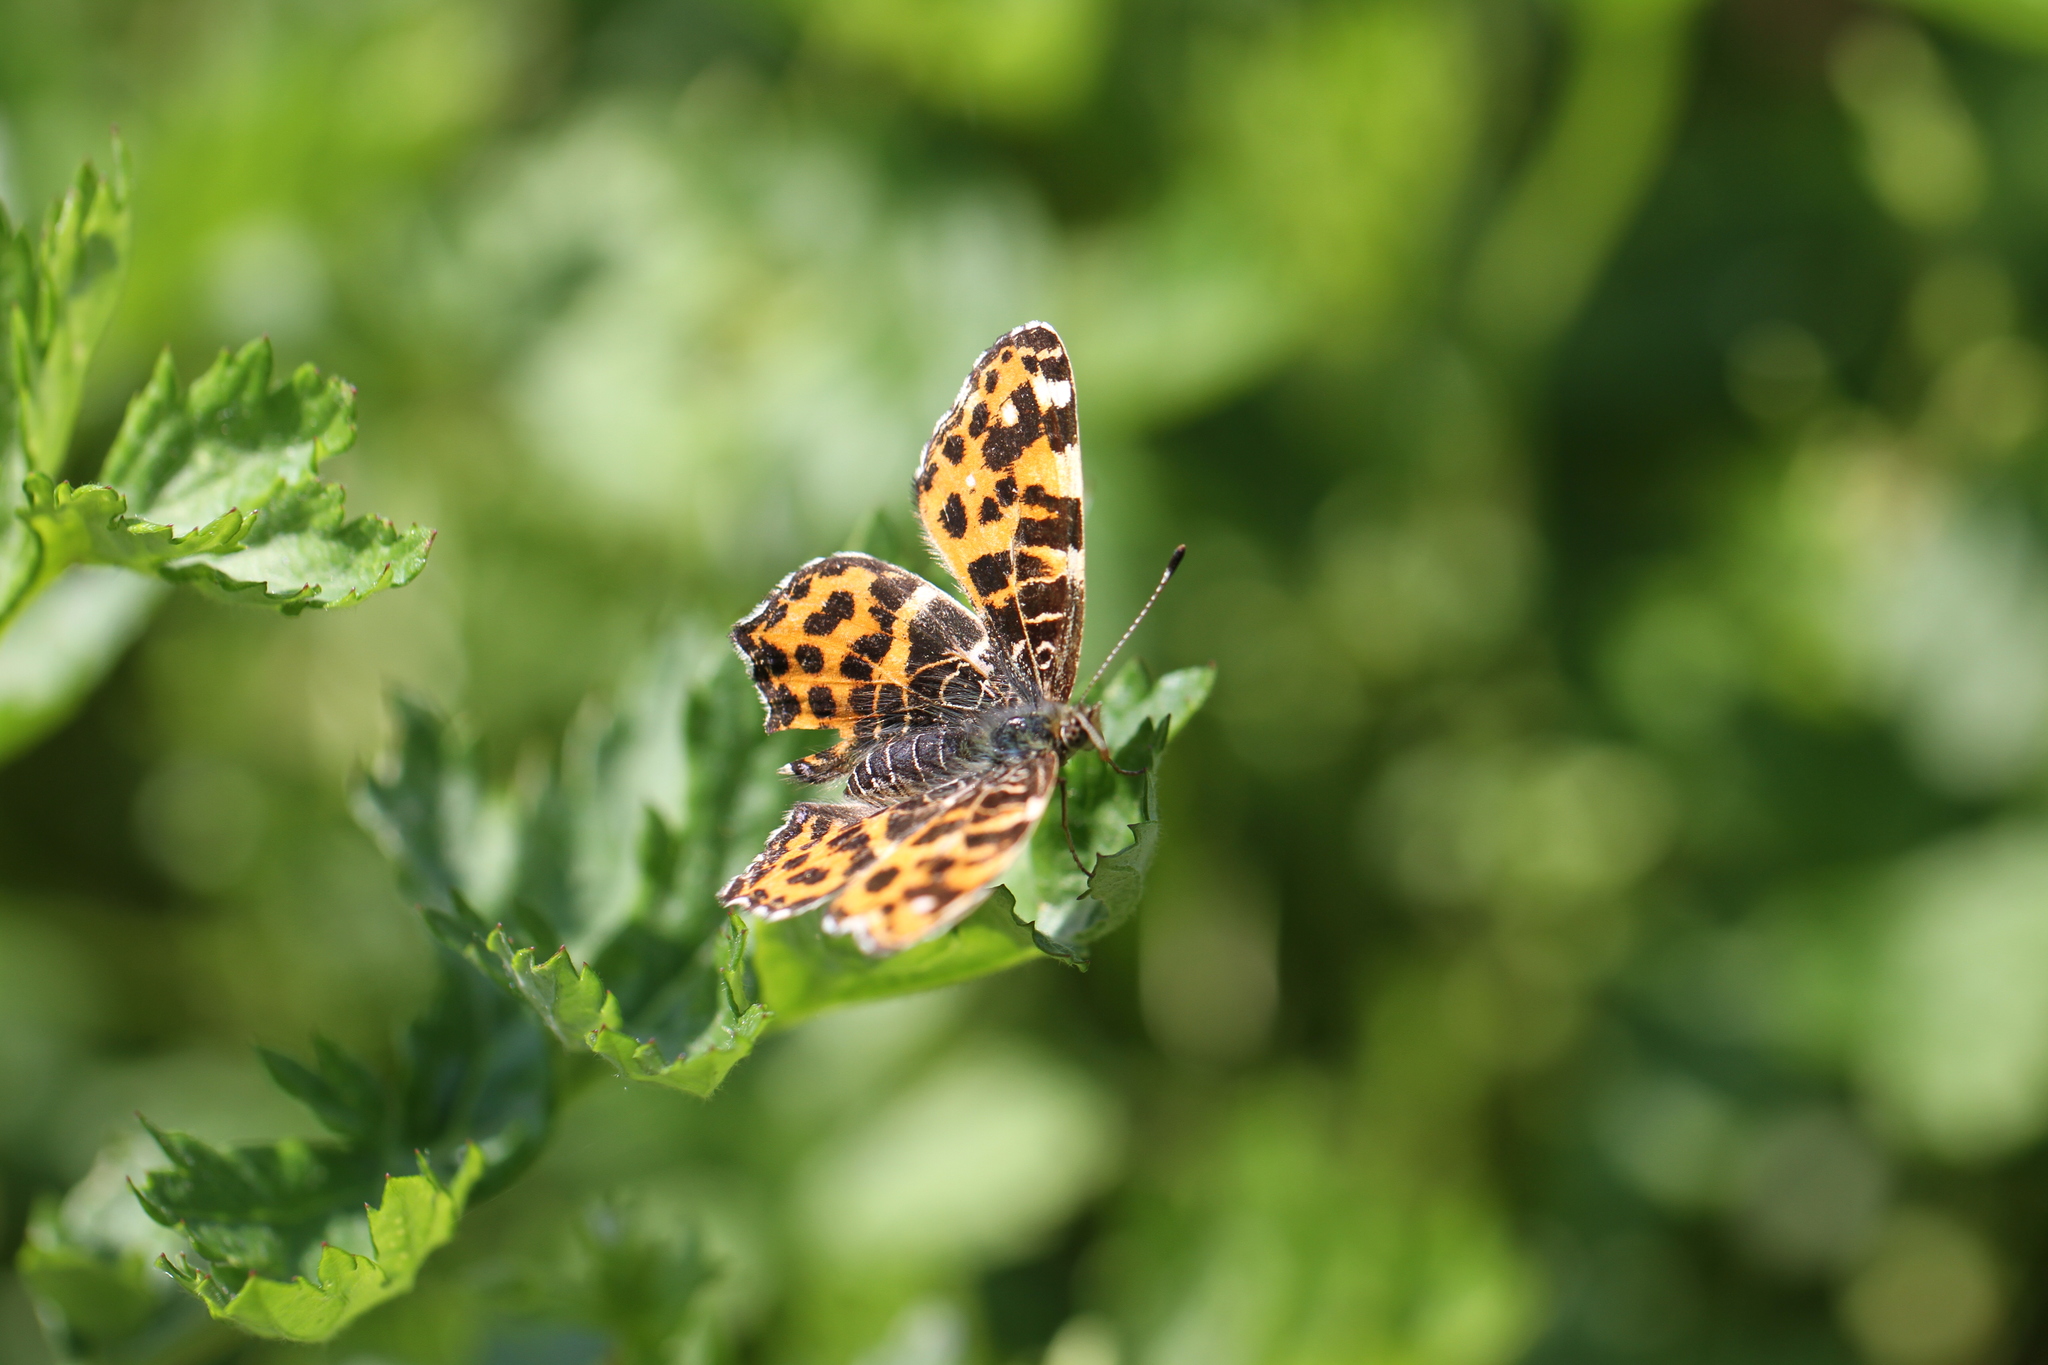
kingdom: Animalia
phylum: Arthropoda
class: Insecta
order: Lepidoptera
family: Nymphalidae
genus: Araschnia
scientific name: Araschnia levana
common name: Map butterfly
